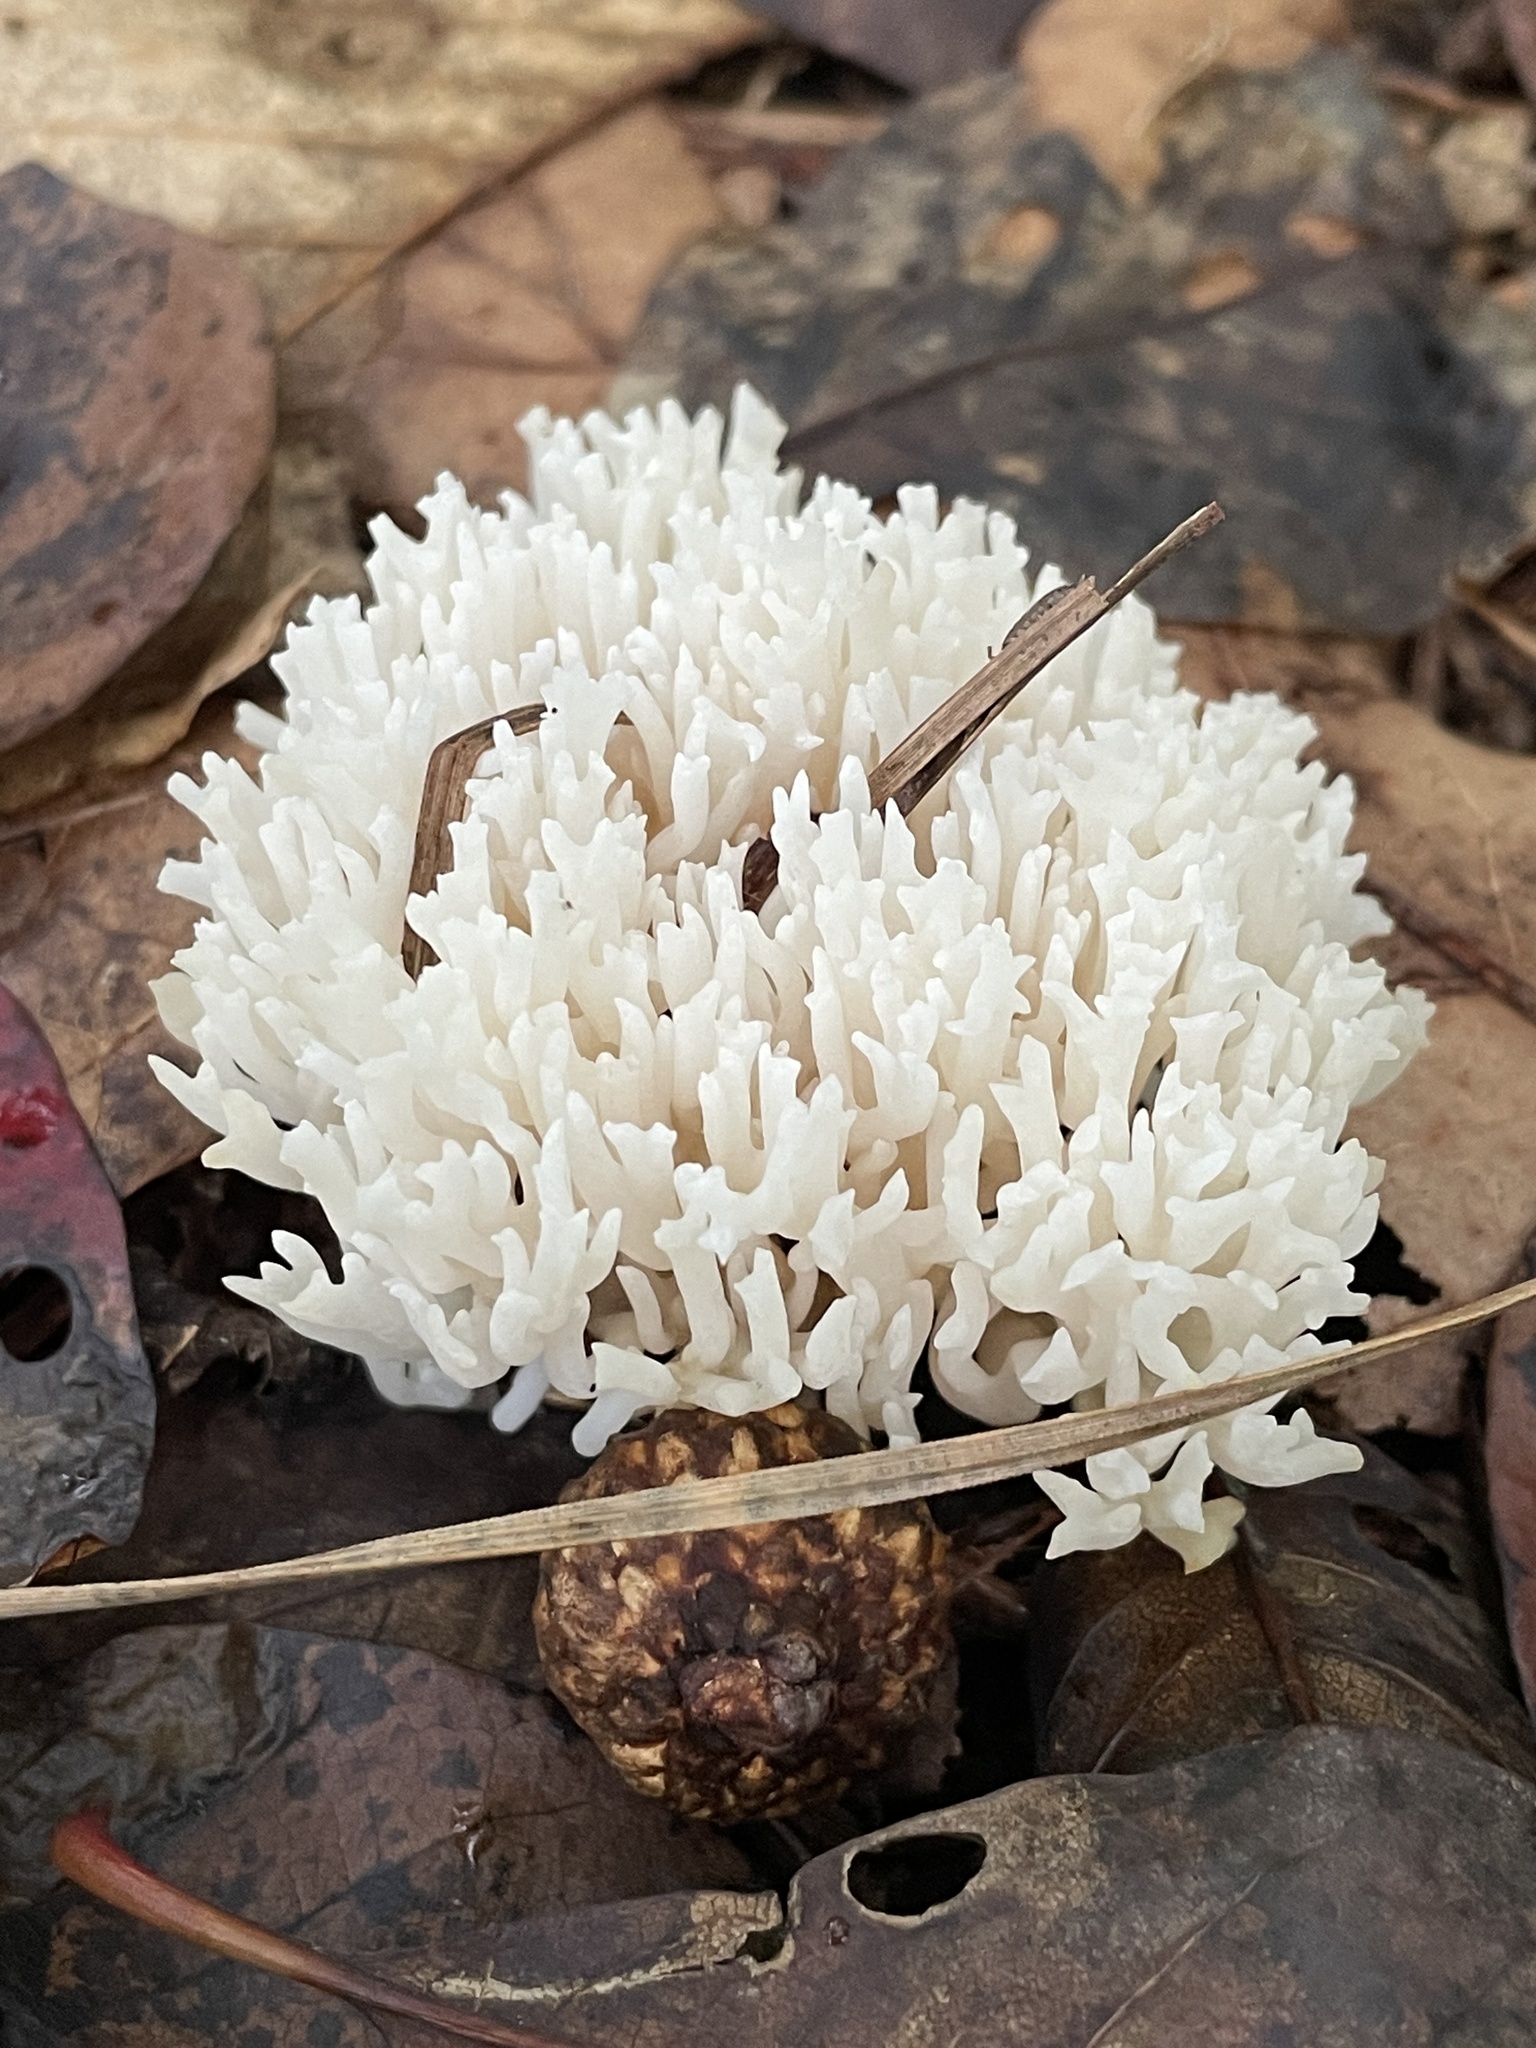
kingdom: Fungi
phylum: Basidiomycota
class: Agaricomycetes
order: Agaricales
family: Clavariaceae
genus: Ramariopsis
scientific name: Ramariopsis kunzei
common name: Ivory coral
